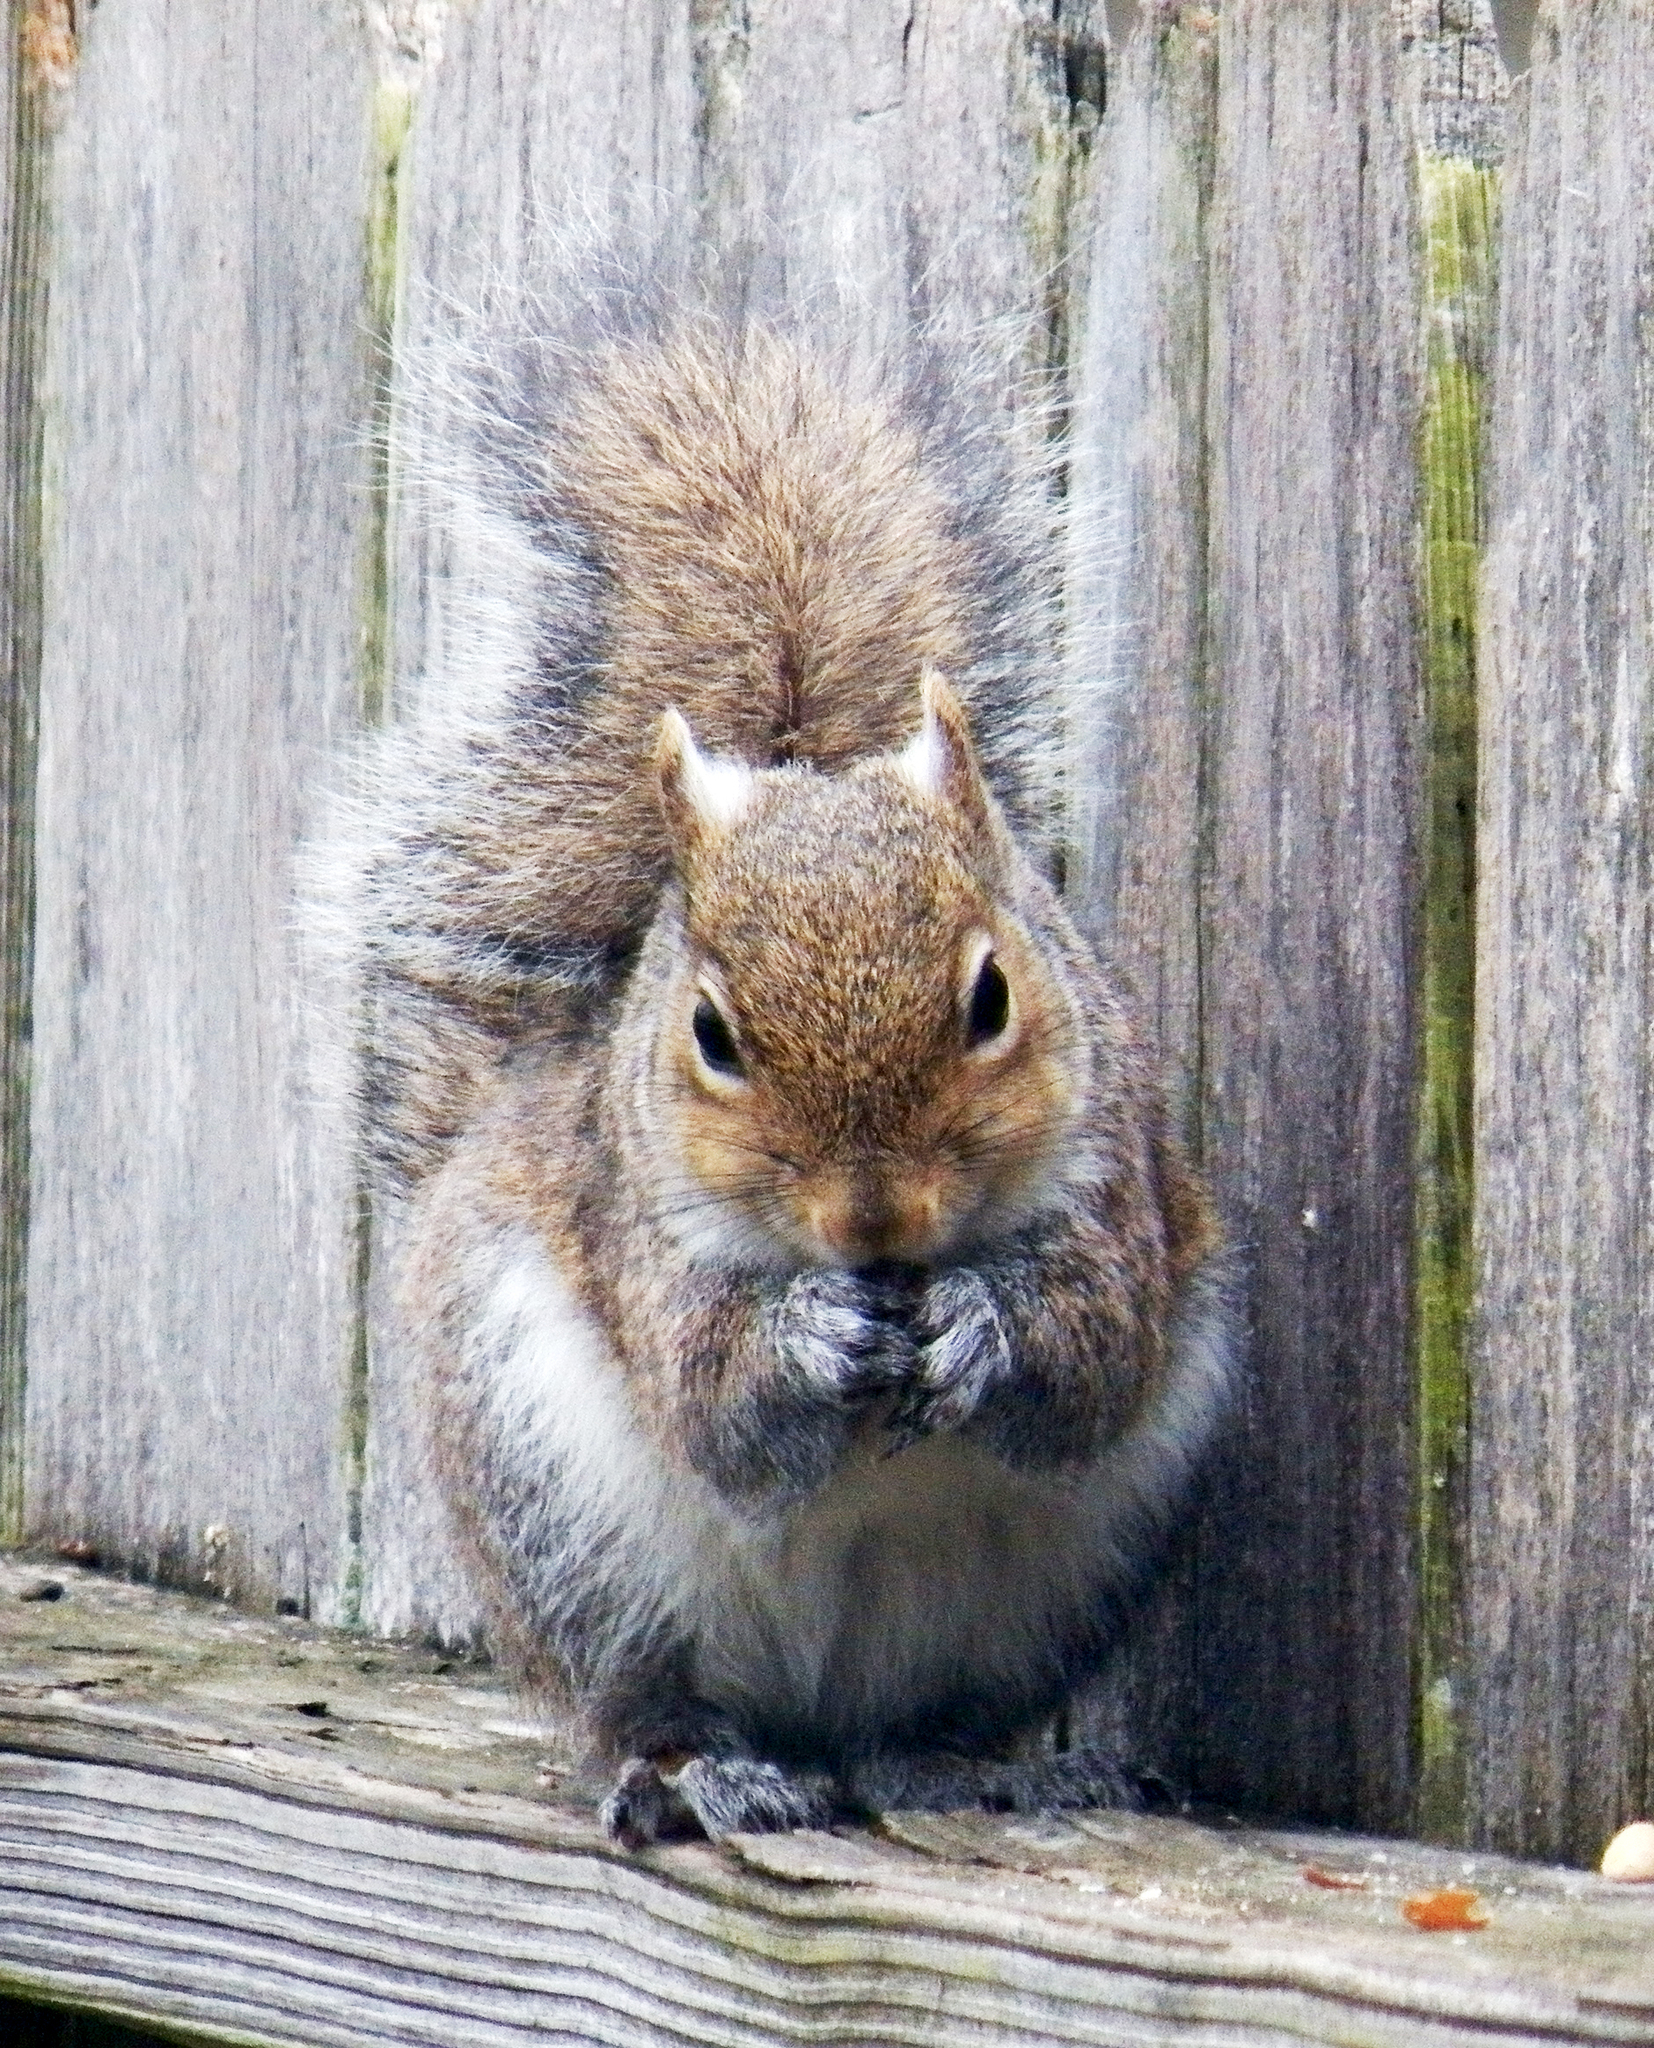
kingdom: Animalia
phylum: Chordata
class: Mammalia
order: Rodentia
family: Sciuridae
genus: Sciurus
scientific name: Sciurus carolinensis
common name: Eastern gray squirrel
